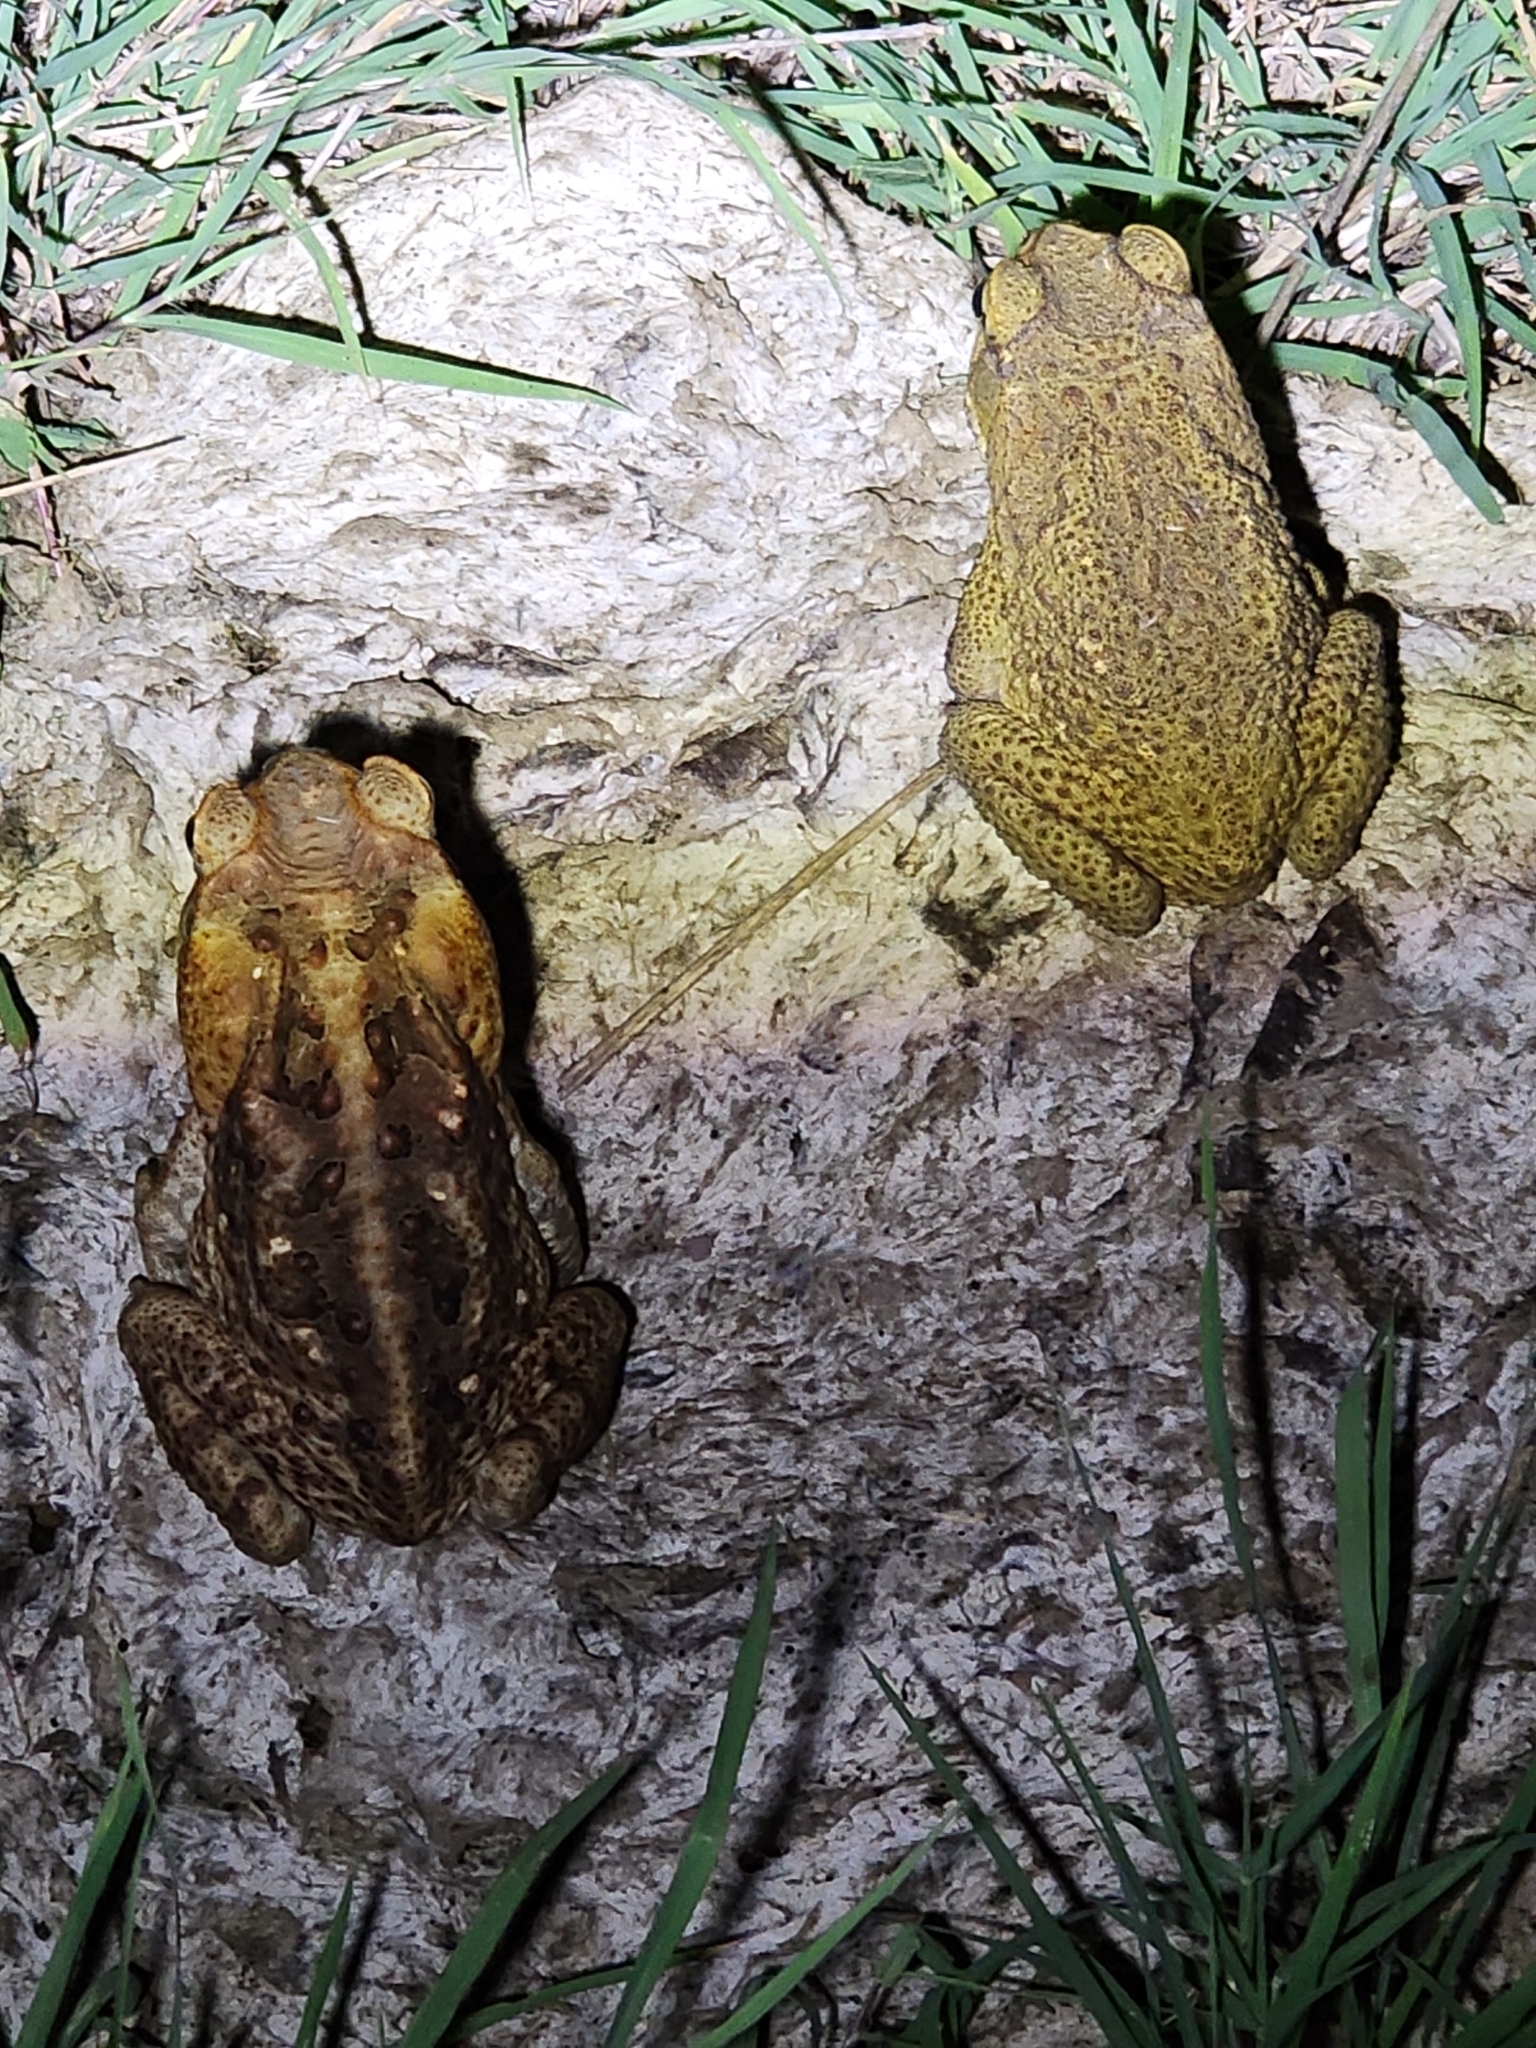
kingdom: Animalia
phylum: Chordata
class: Amphibia
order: Anura
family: Bufonidae
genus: Rhinella
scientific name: Rhinella marina
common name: Cane toad
